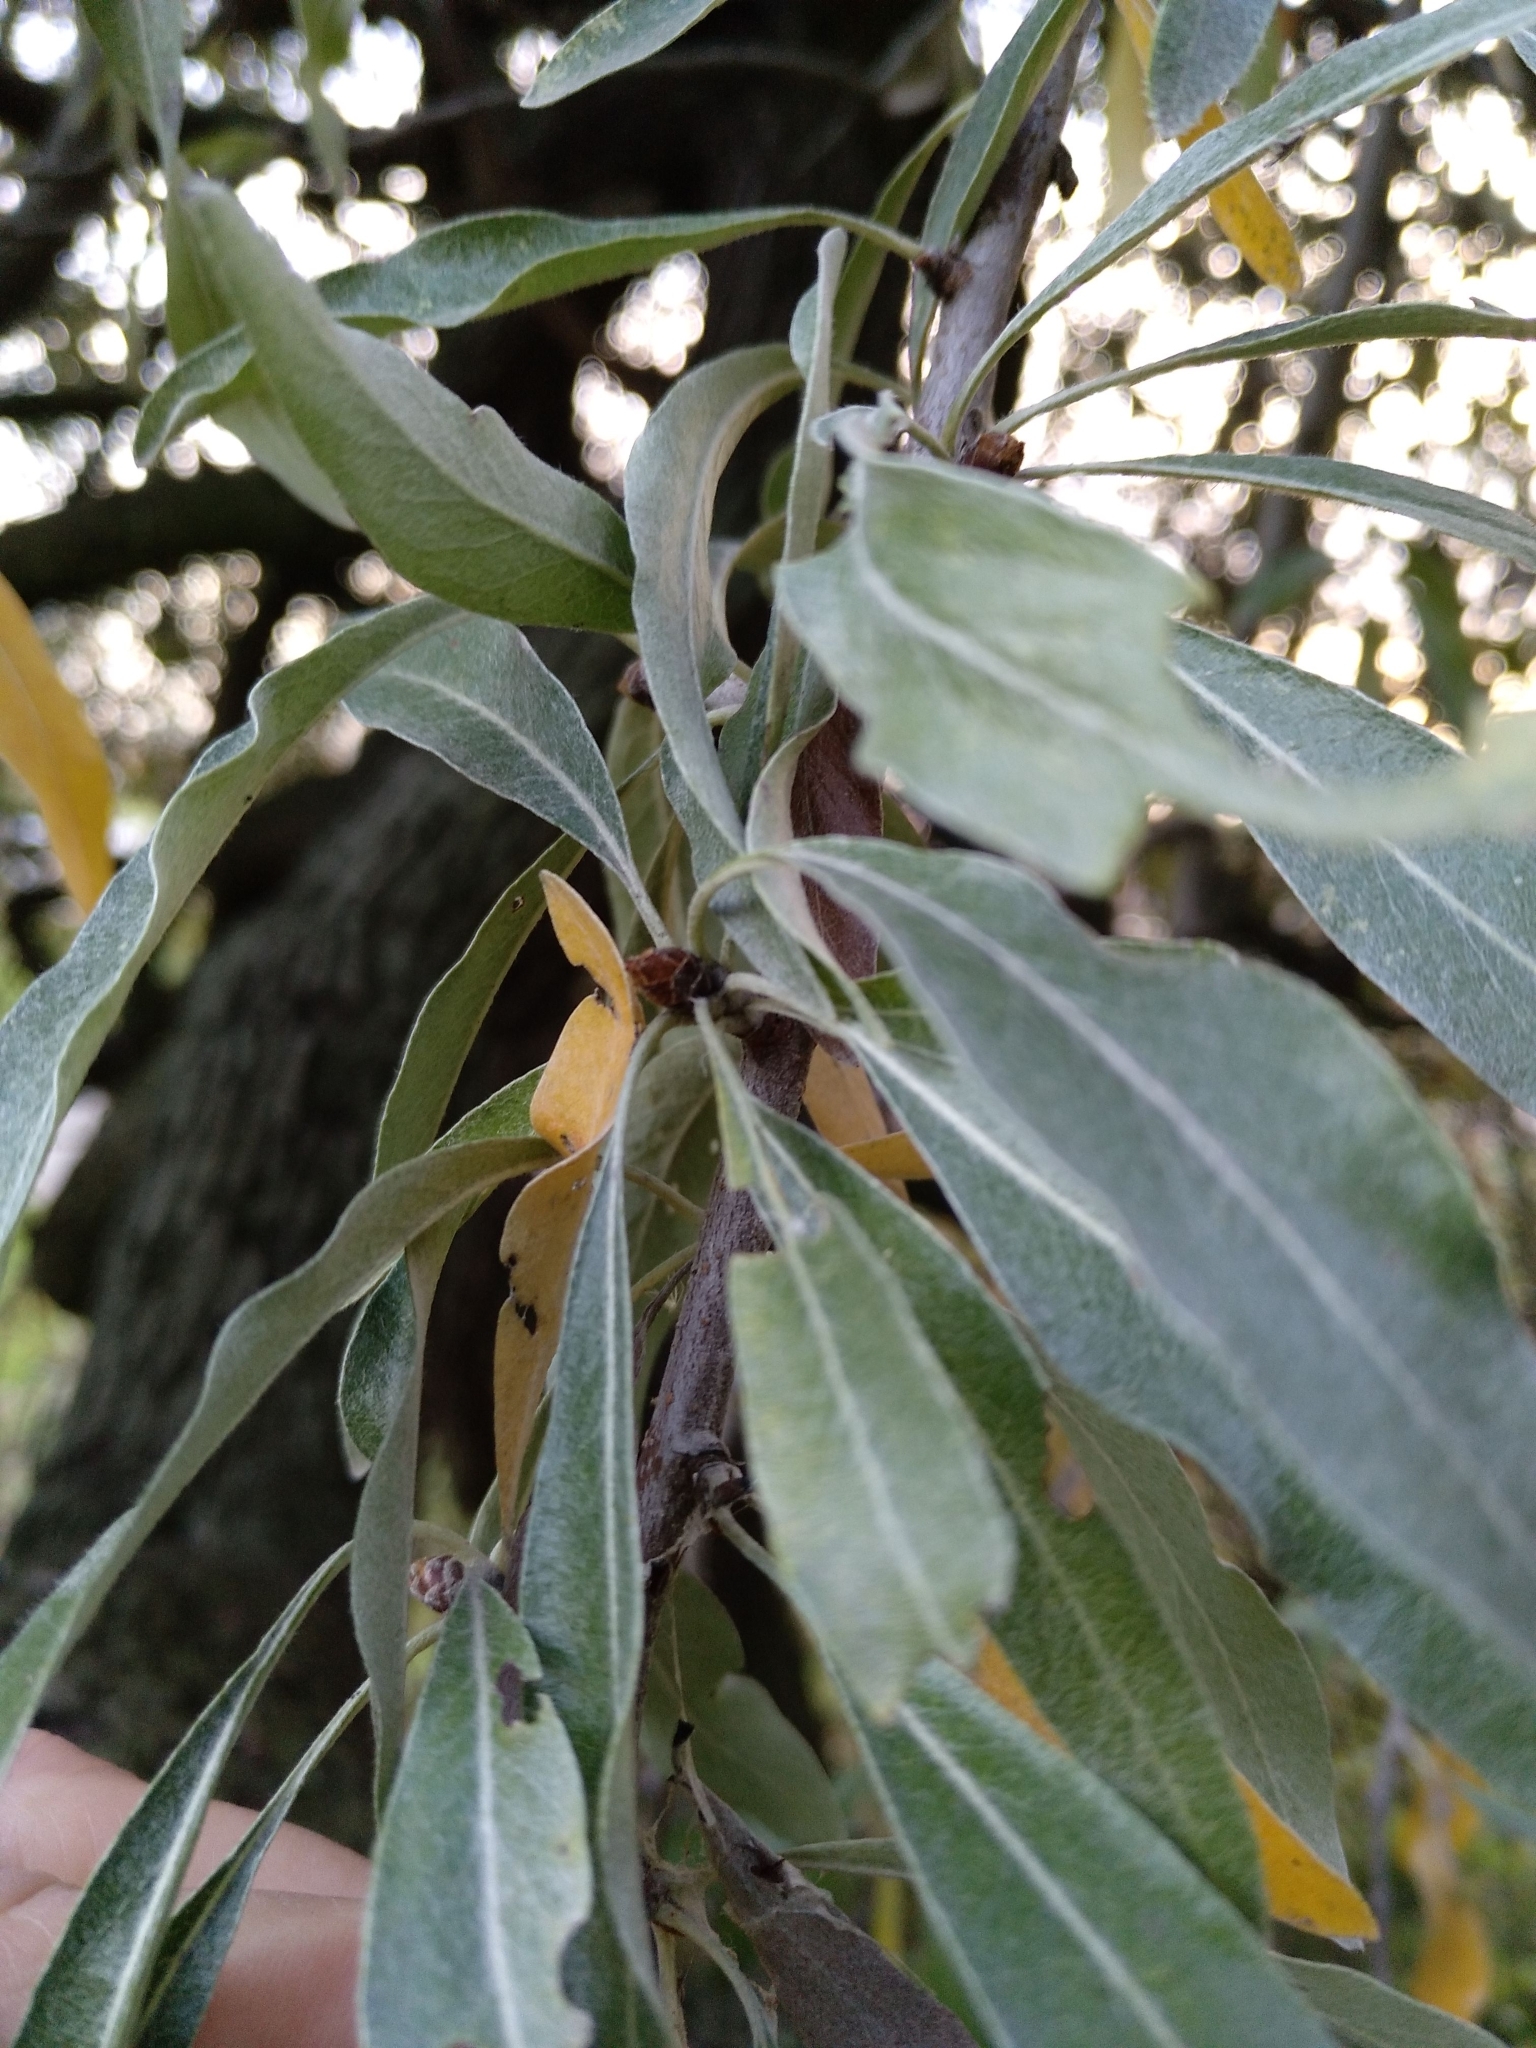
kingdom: Plantae
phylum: Tracheophyta
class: Magnoliopsida
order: Rosales
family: Rosaceae
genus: Pyrus
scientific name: Pyrus salicifolia
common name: Willow-leaved pear
